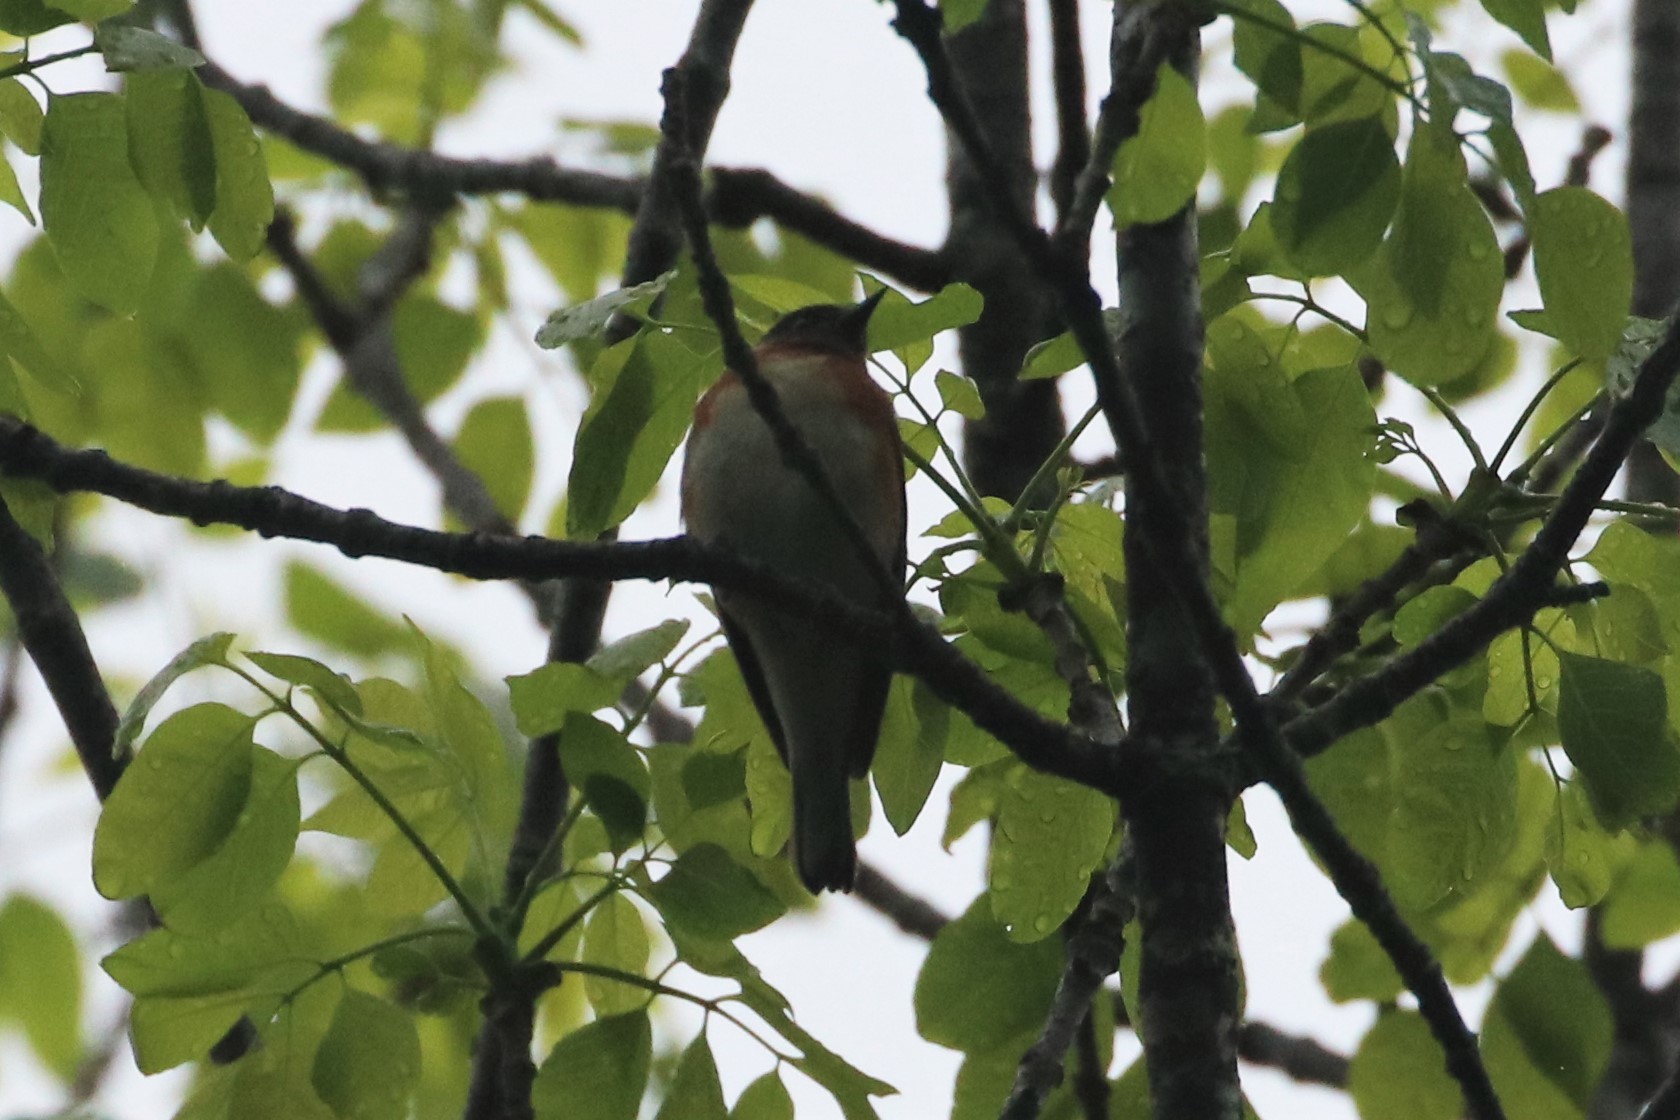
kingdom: Animalia
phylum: Chordata
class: Aves
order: Passeriformes
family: Parulidae
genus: Setophaga
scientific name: Setophaga castanea
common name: Bay-breasted warbler
